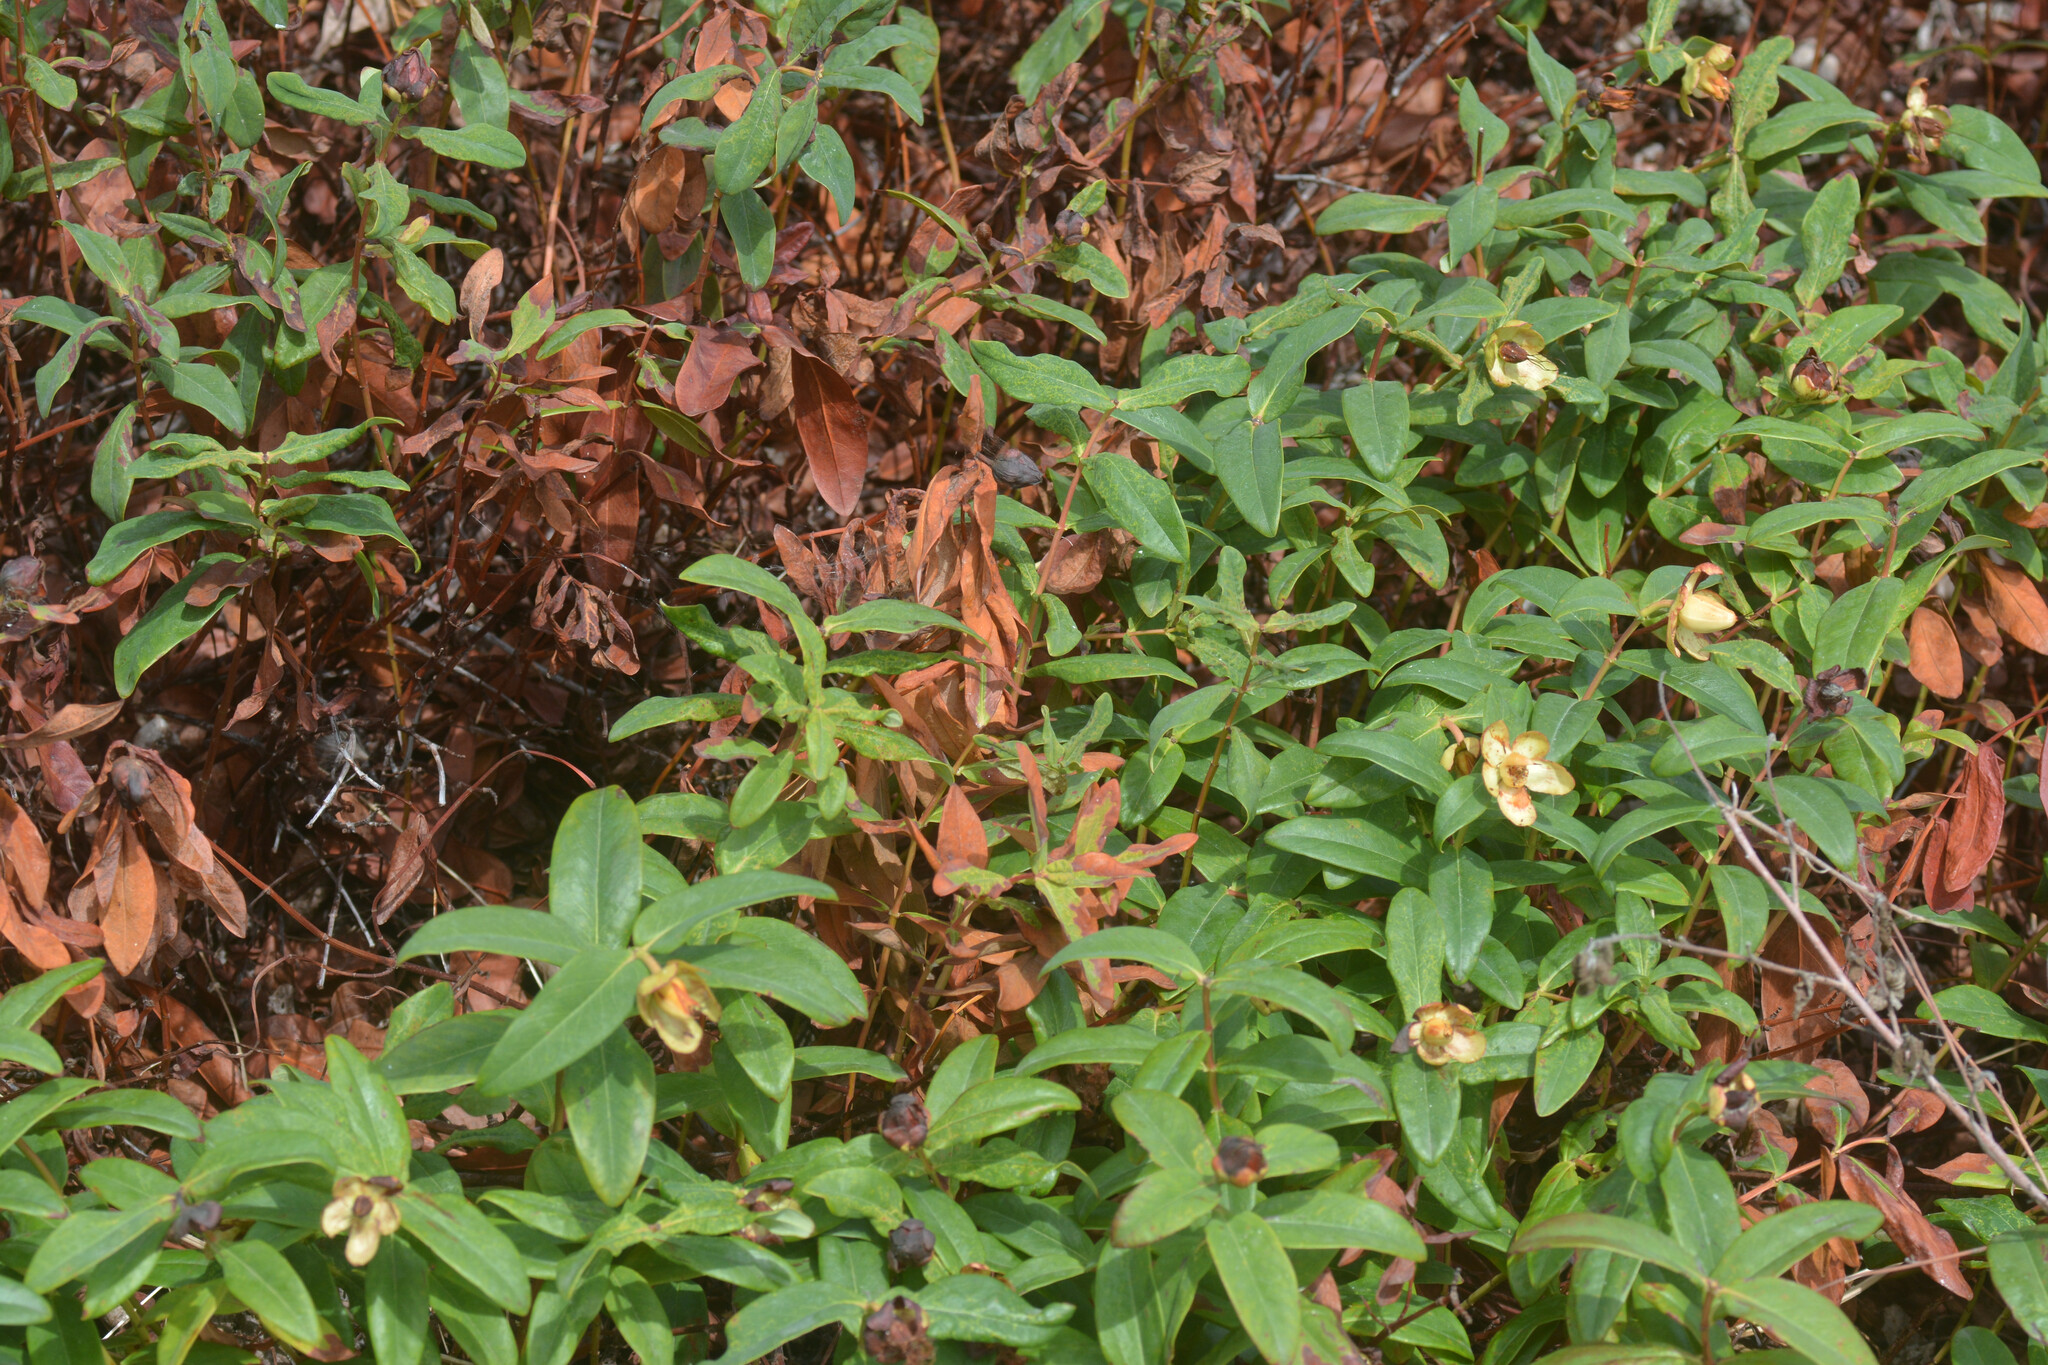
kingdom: Plantae
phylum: Tracheophyta
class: Magnoliopsida
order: Malpighiales
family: Hypericaceae
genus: Hypericum
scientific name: Hypericum calycinum
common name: Rose-of-sharon
